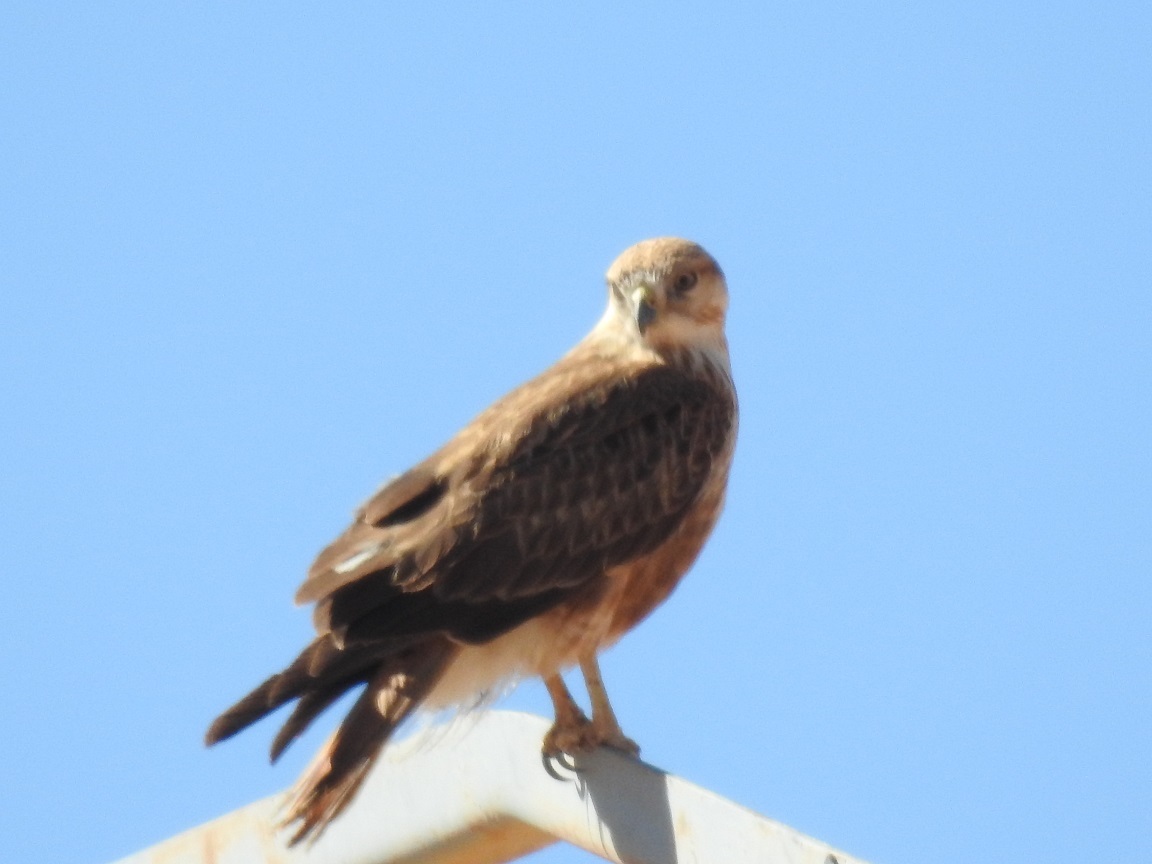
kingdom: Animalia
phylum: Chordata
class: Aves
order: Accipitriformes
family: Accipitridae
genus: Buteo
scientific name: Buteo rufinus
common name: Long-legged buzzard
